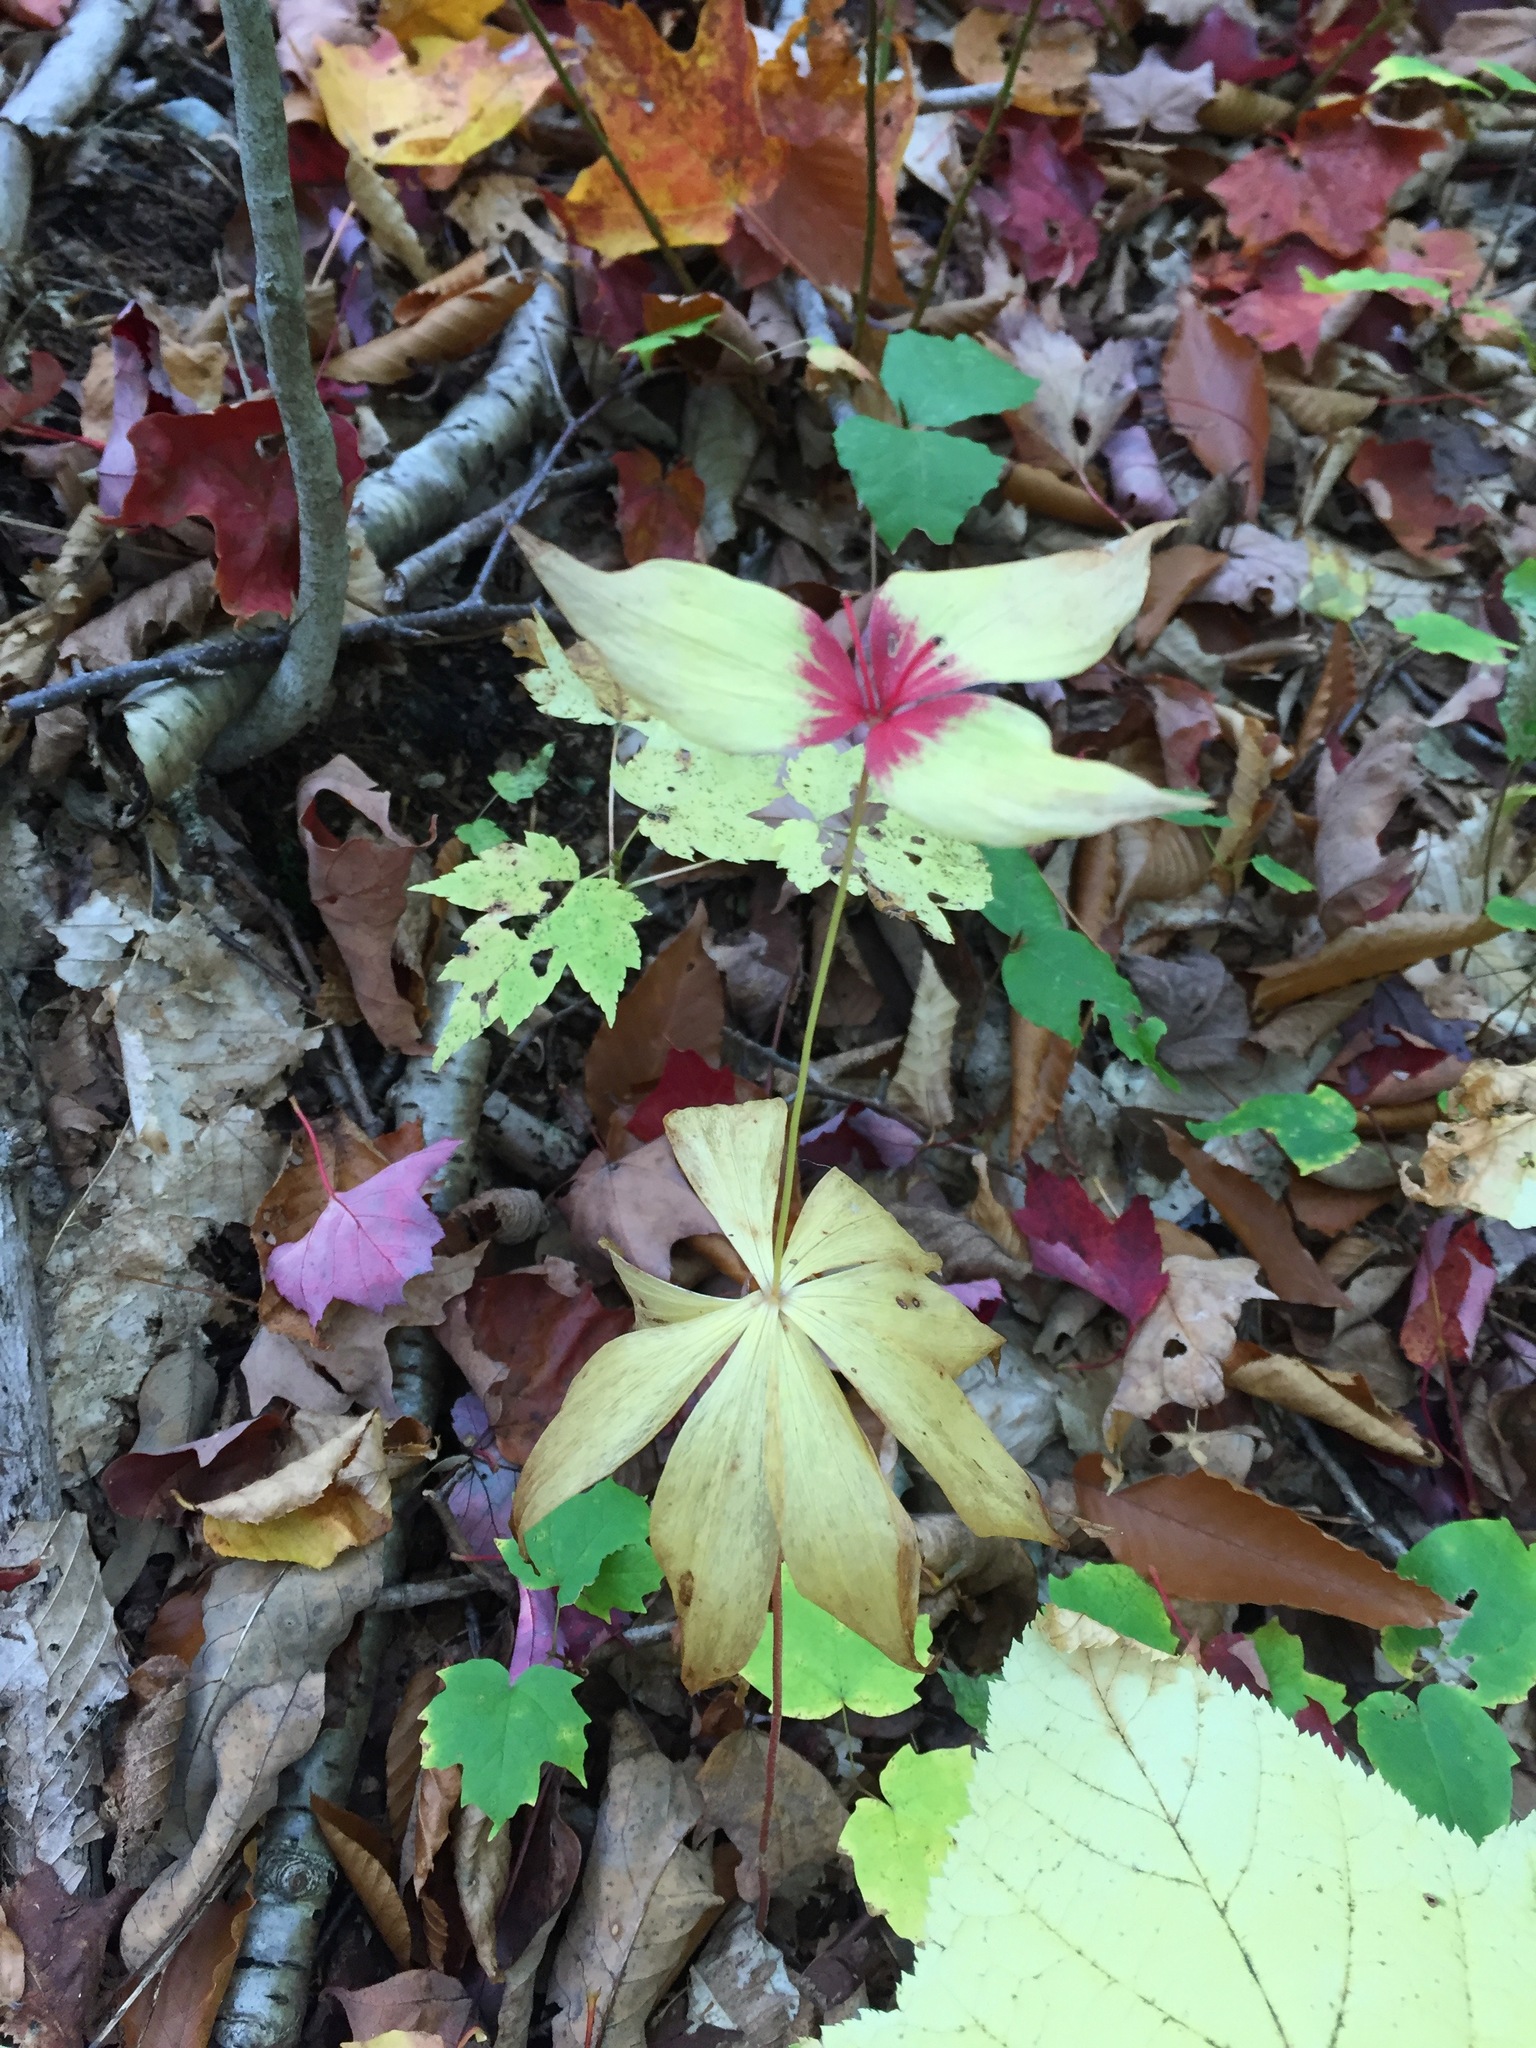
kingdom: Plantae
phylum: Tracheophyta
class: Liliopsida
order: Liliales
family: Liliaceae
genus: Medeola
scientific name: Medeola virginiana
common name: Indian cucumber-root
